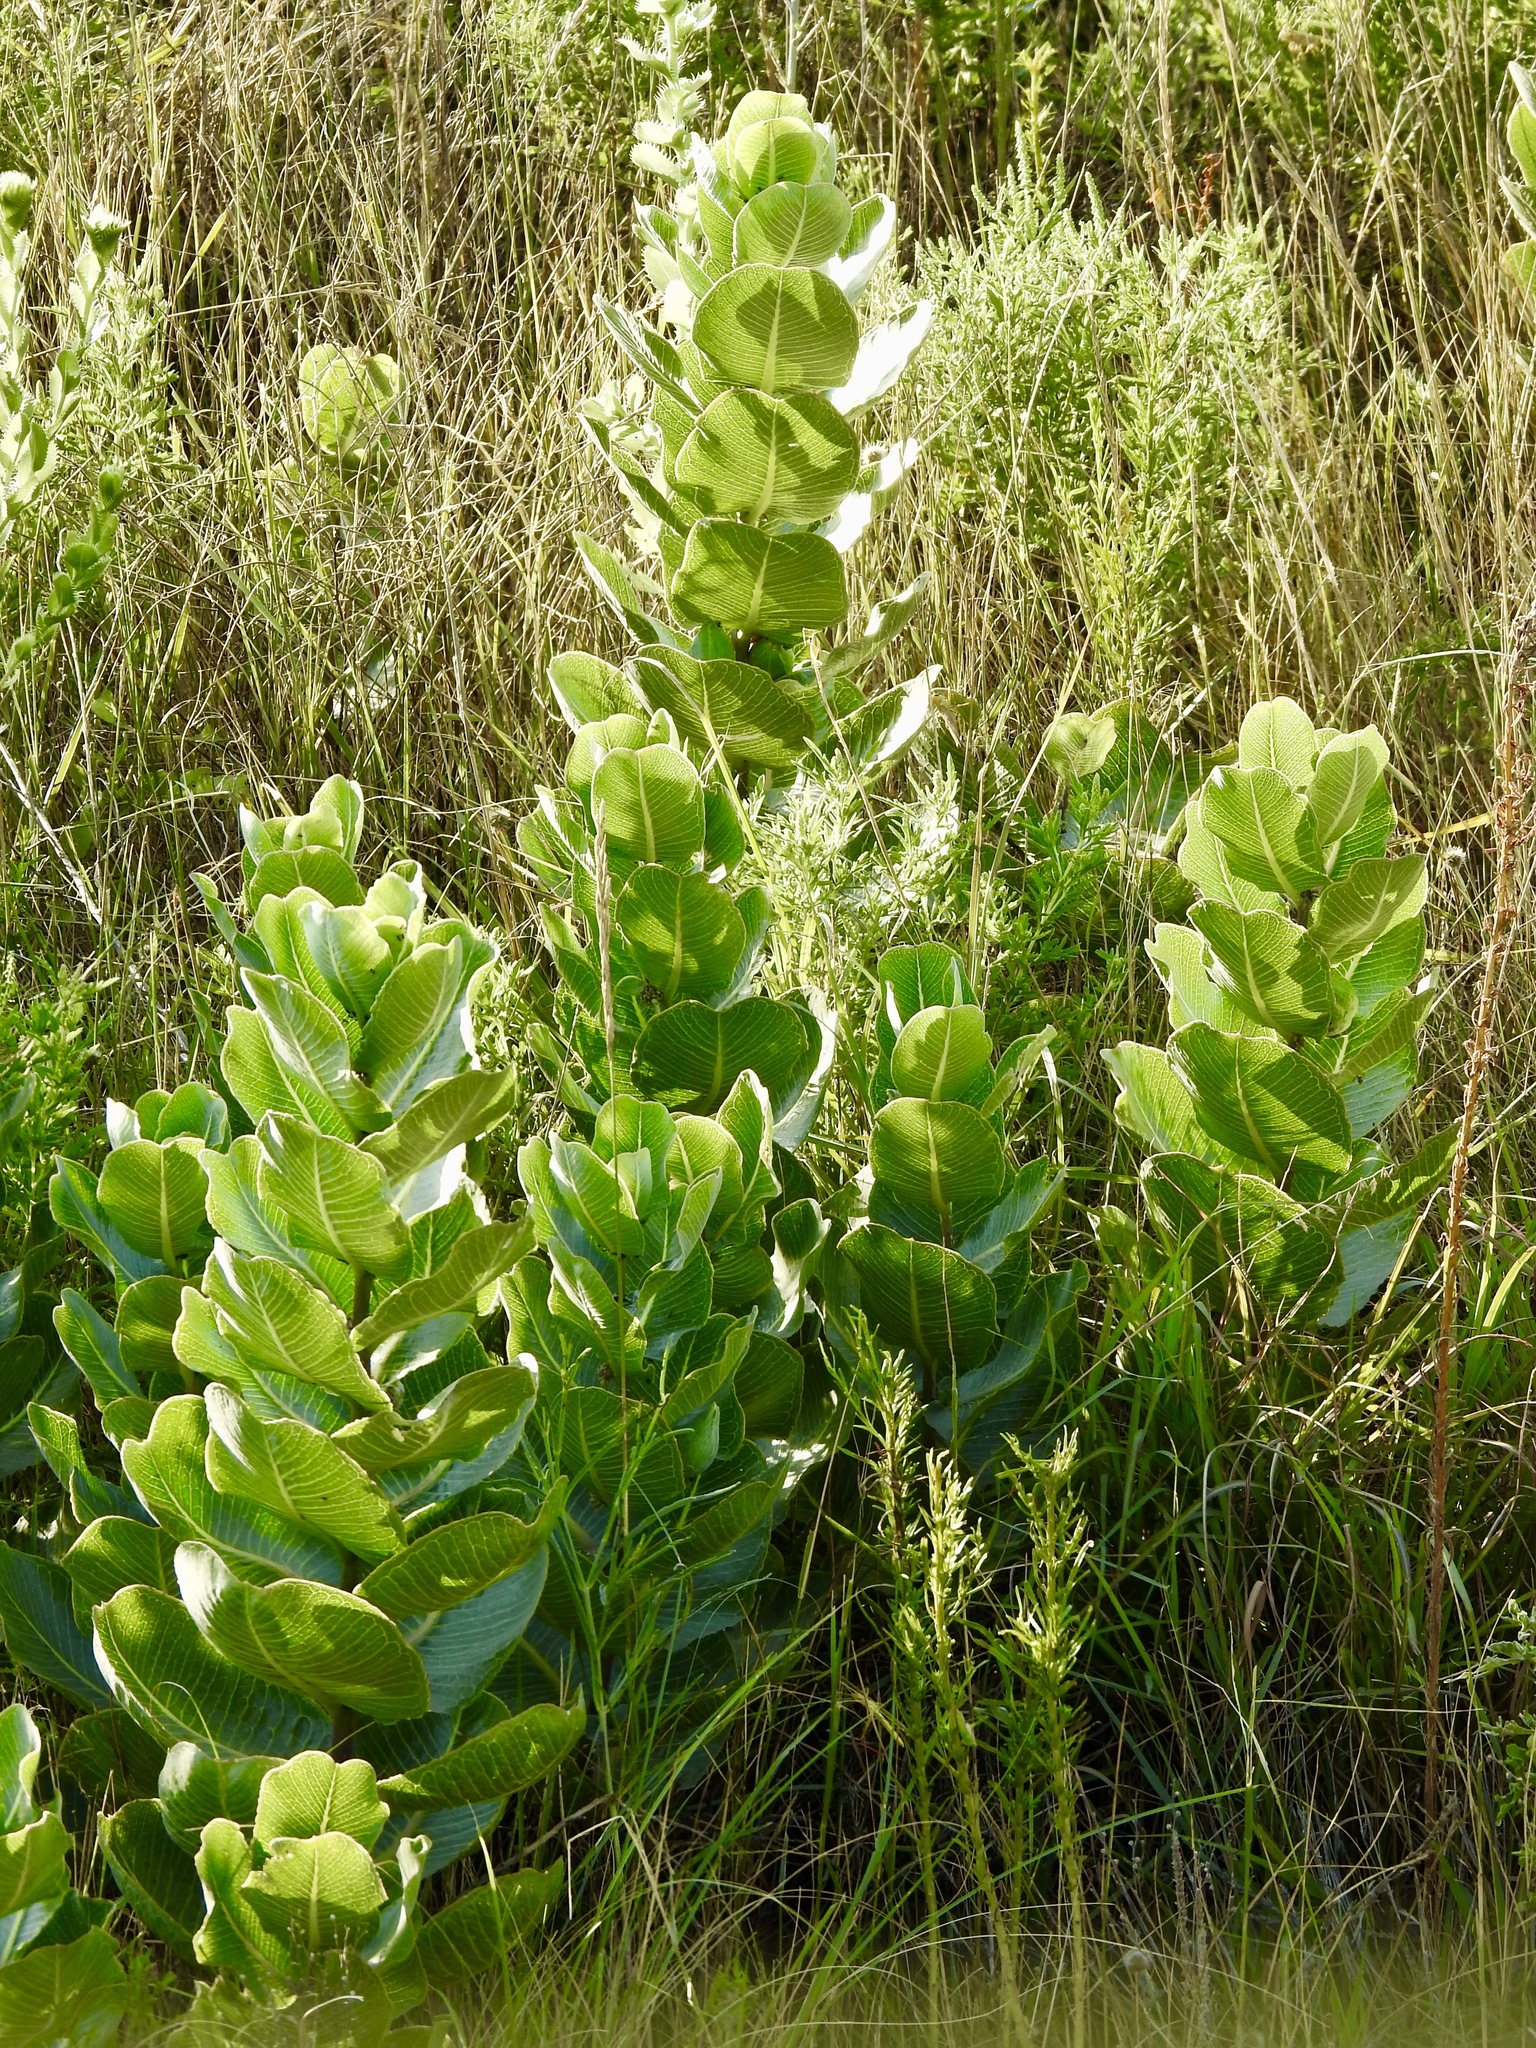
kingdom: Plantae
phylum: Tracheophyta
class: Magnoliopsida
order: Gentianales
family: Apocynaceae
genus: Asclepias
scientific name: Asclepias latifolia
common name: Broadleaf milkweed
